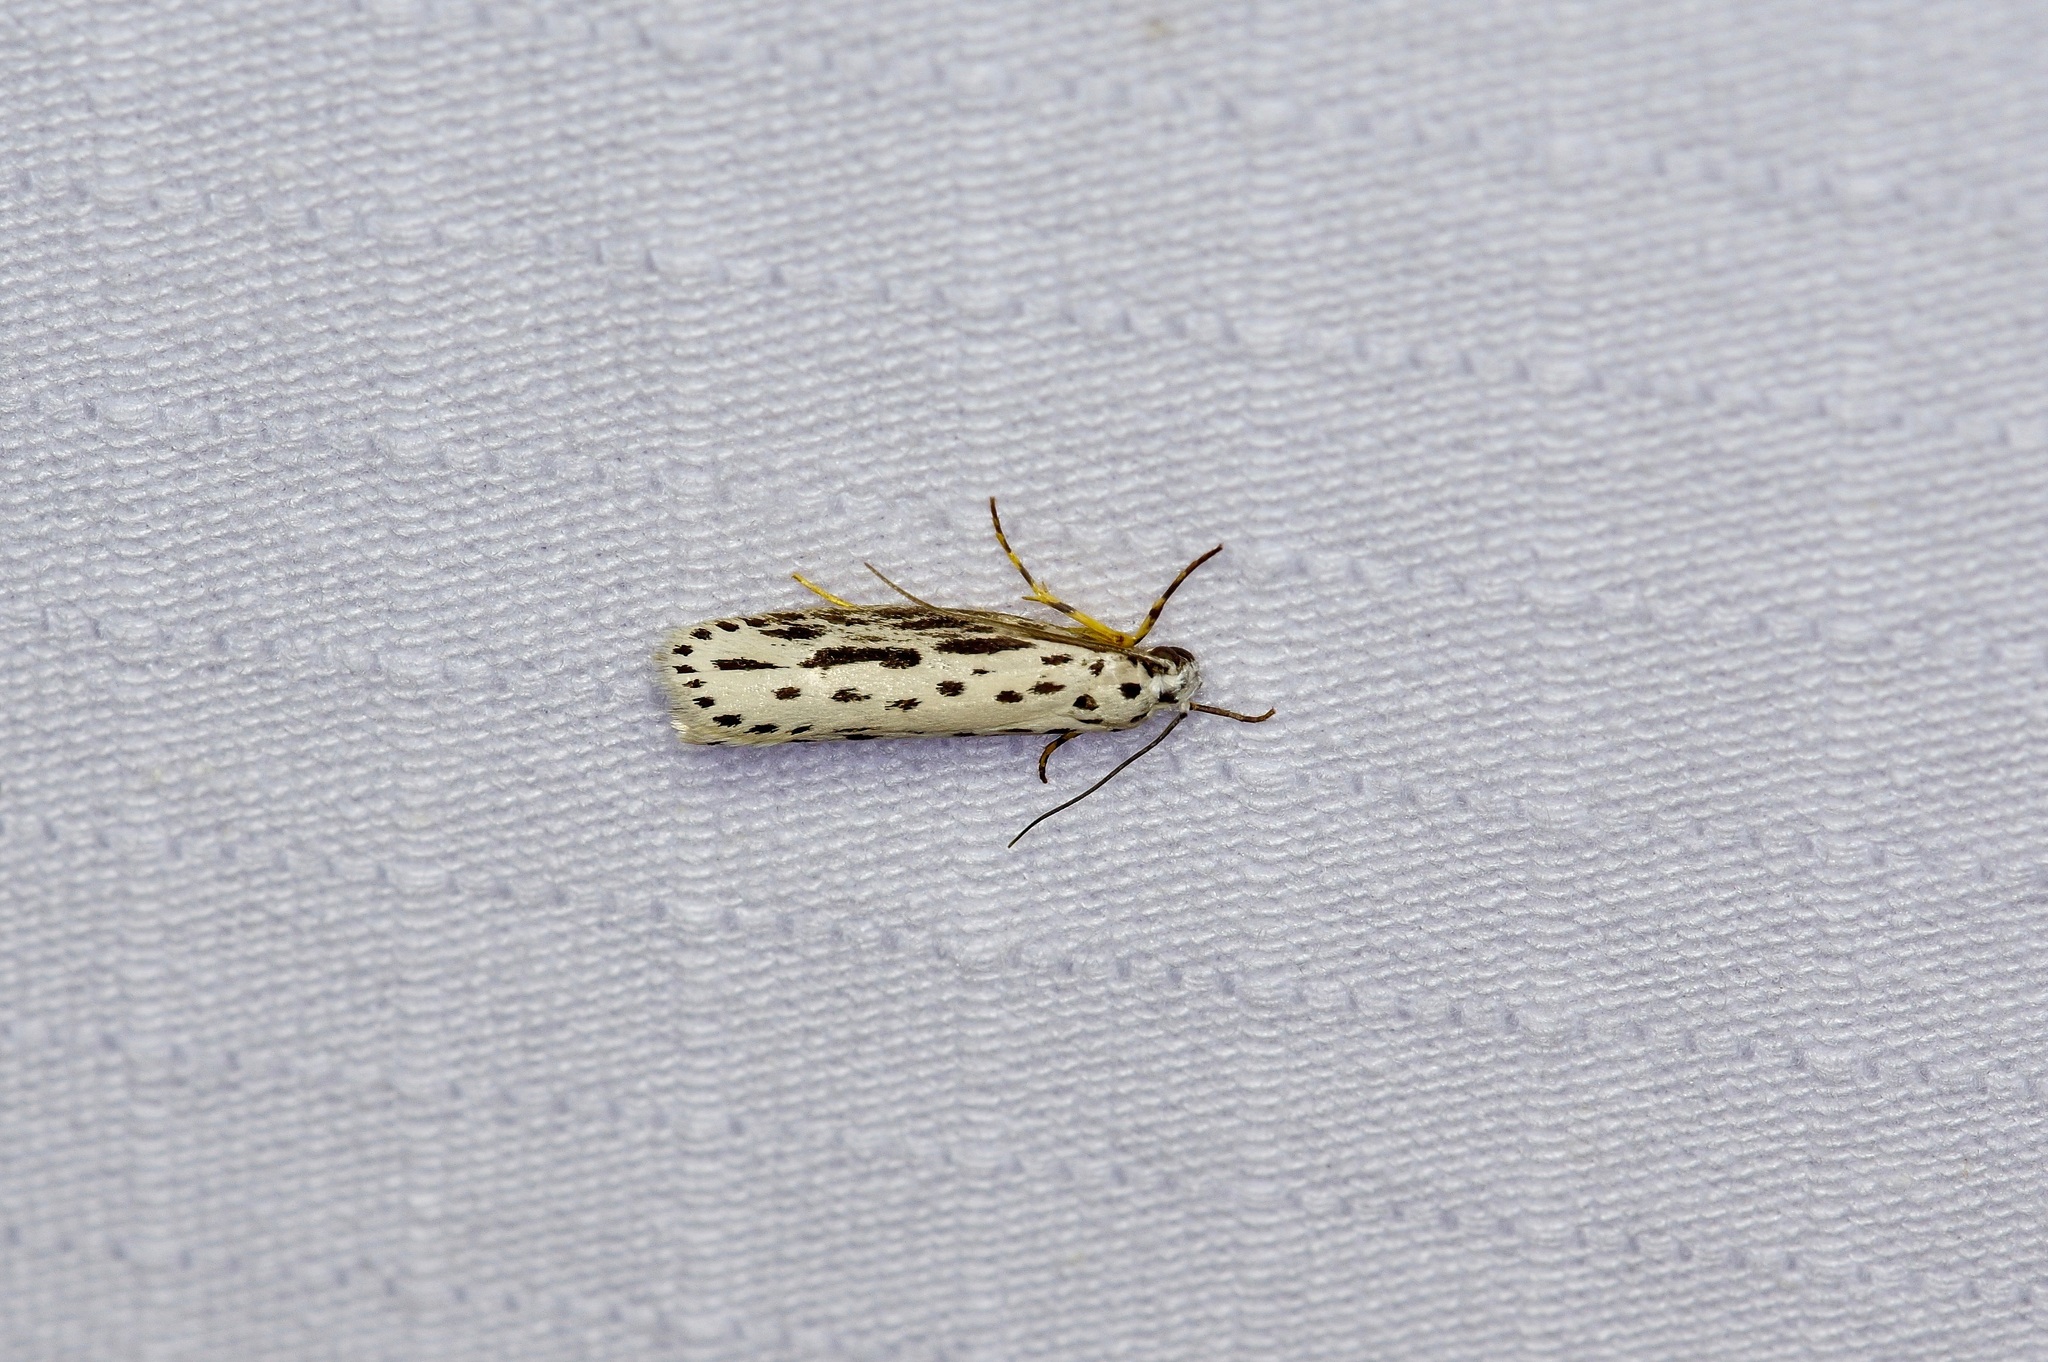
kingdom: Animalia
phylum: Arthropoda
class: Insecta
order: Lepidoptera
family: Ethmiidae
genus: Ethmia
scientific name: Ethmia zelleriella
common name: Zeller's ethmia
